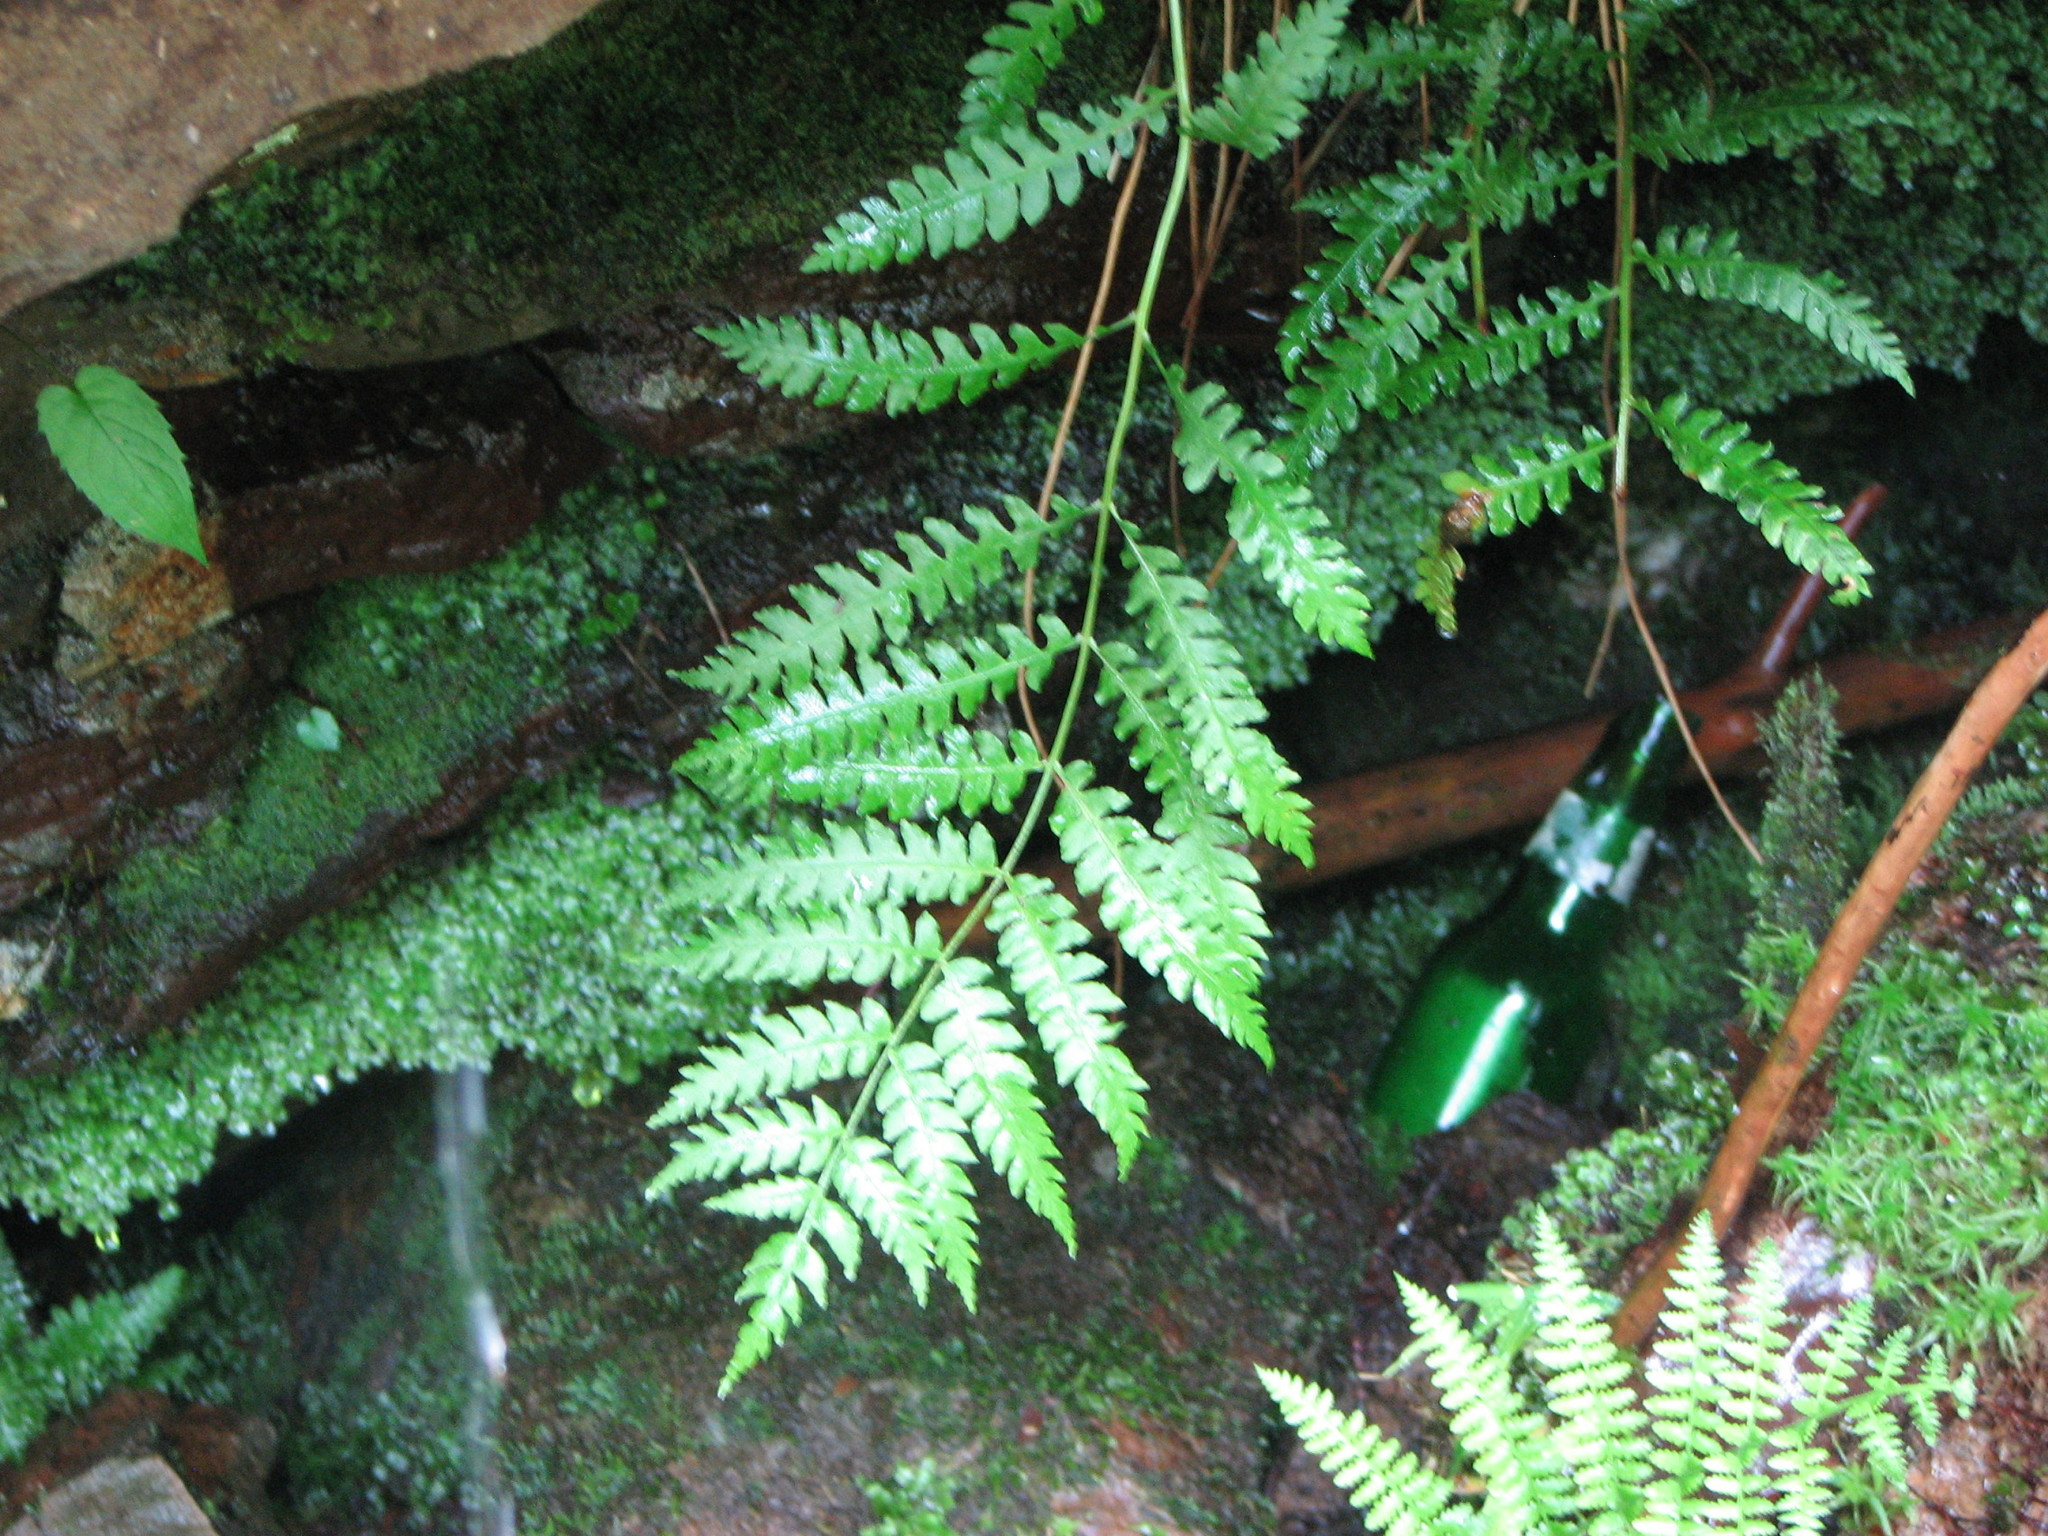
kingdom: Plantae
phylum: Tracheophyta
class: Polypodiopsida
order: Osmundales
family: Osmundaceae
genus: Osmundastrum
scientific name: Osmundastrum cinnamomeum
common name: Cinnamon fern
